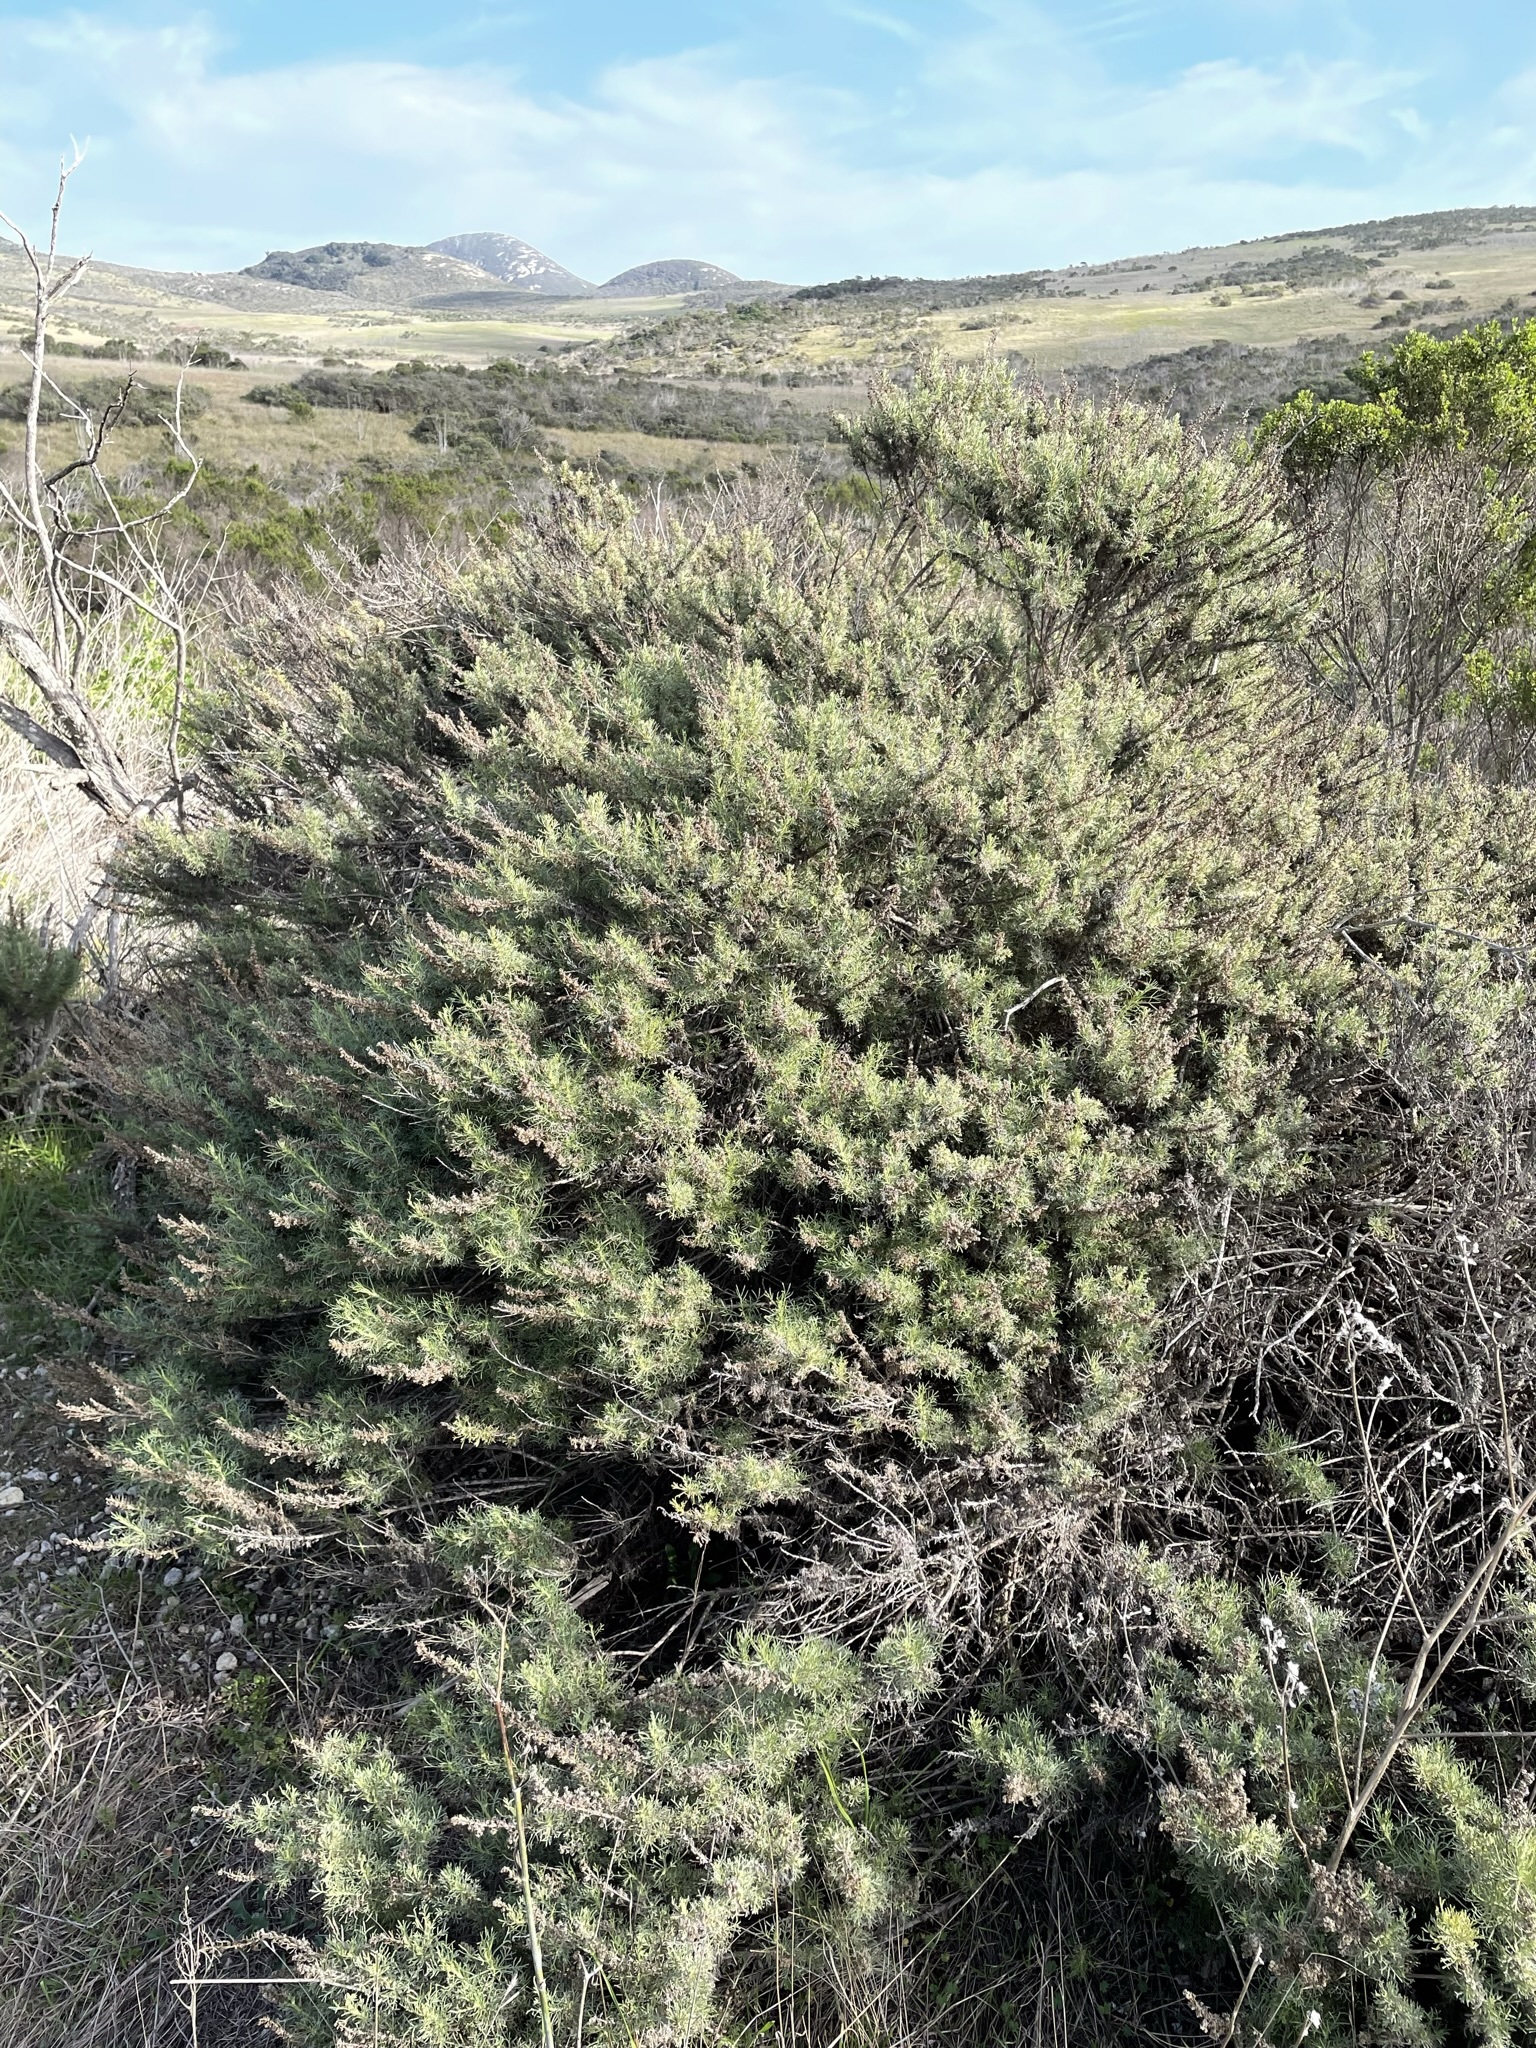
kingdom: Plantae
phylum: Tracheophyta
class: Magnoliopsida
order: Asterales
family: Asteraceae
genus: Artemisia
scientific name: Artemisia californica
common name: California sagebrush
